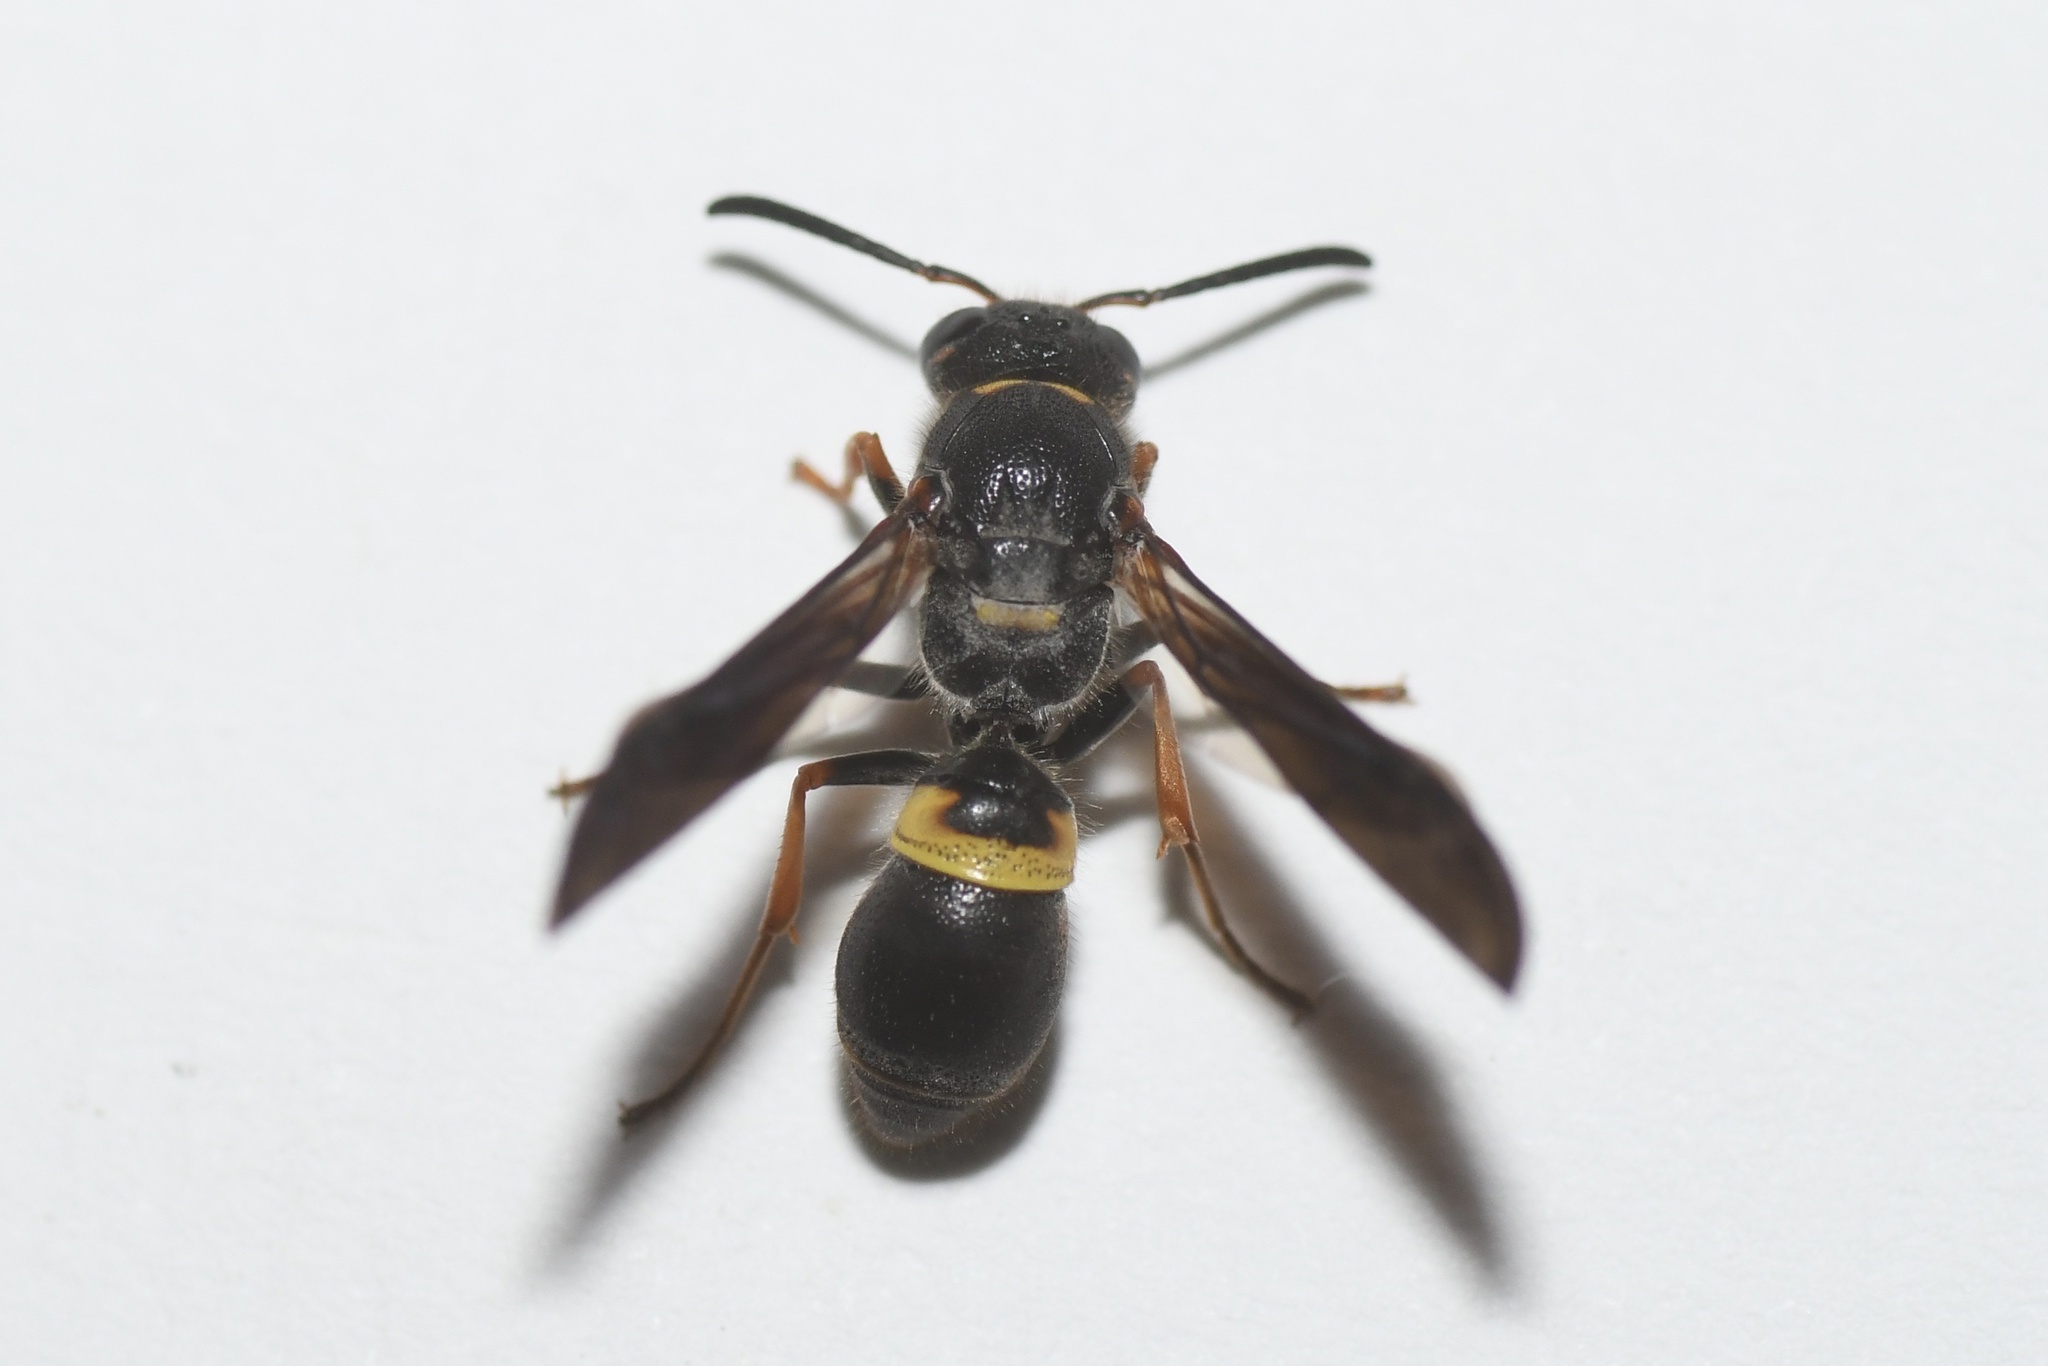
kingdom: Animalia
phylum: Arthropoda
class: Insecta
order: Hymenoptera
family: Vespidae
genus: Ancistrocerus
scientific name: Ancistrocerus unifasciatus
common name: One-banded mason wasp
